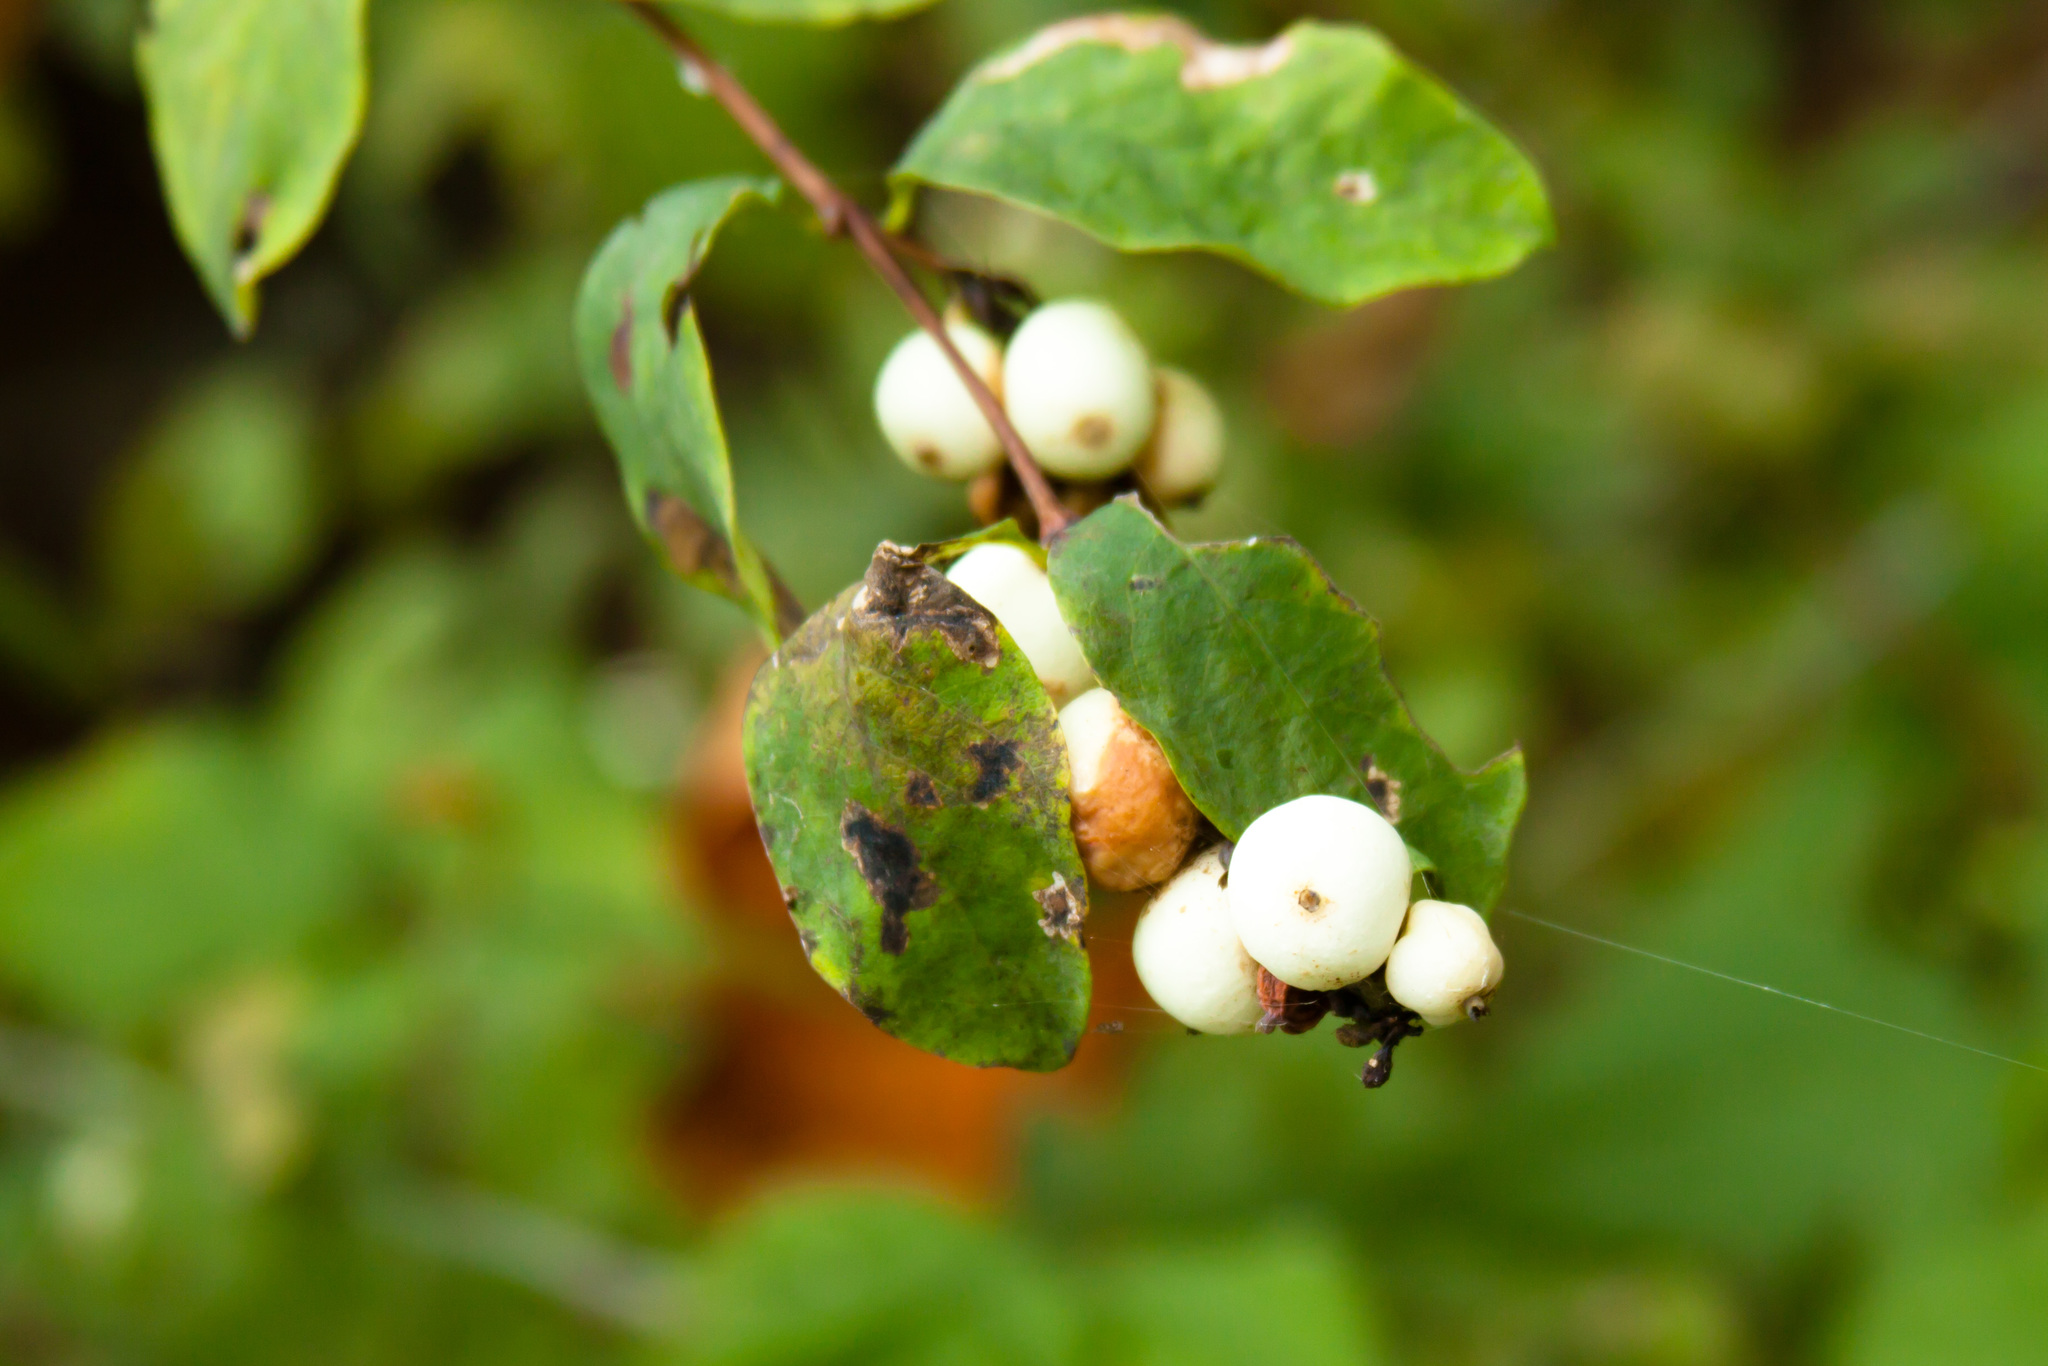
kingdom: Plantae
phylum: Tracheophyta
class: Magnoliopsida
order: Dipsacales
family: Caprifoliaceae
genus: Symphoricarpos
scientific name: Symphoricarpos albus
